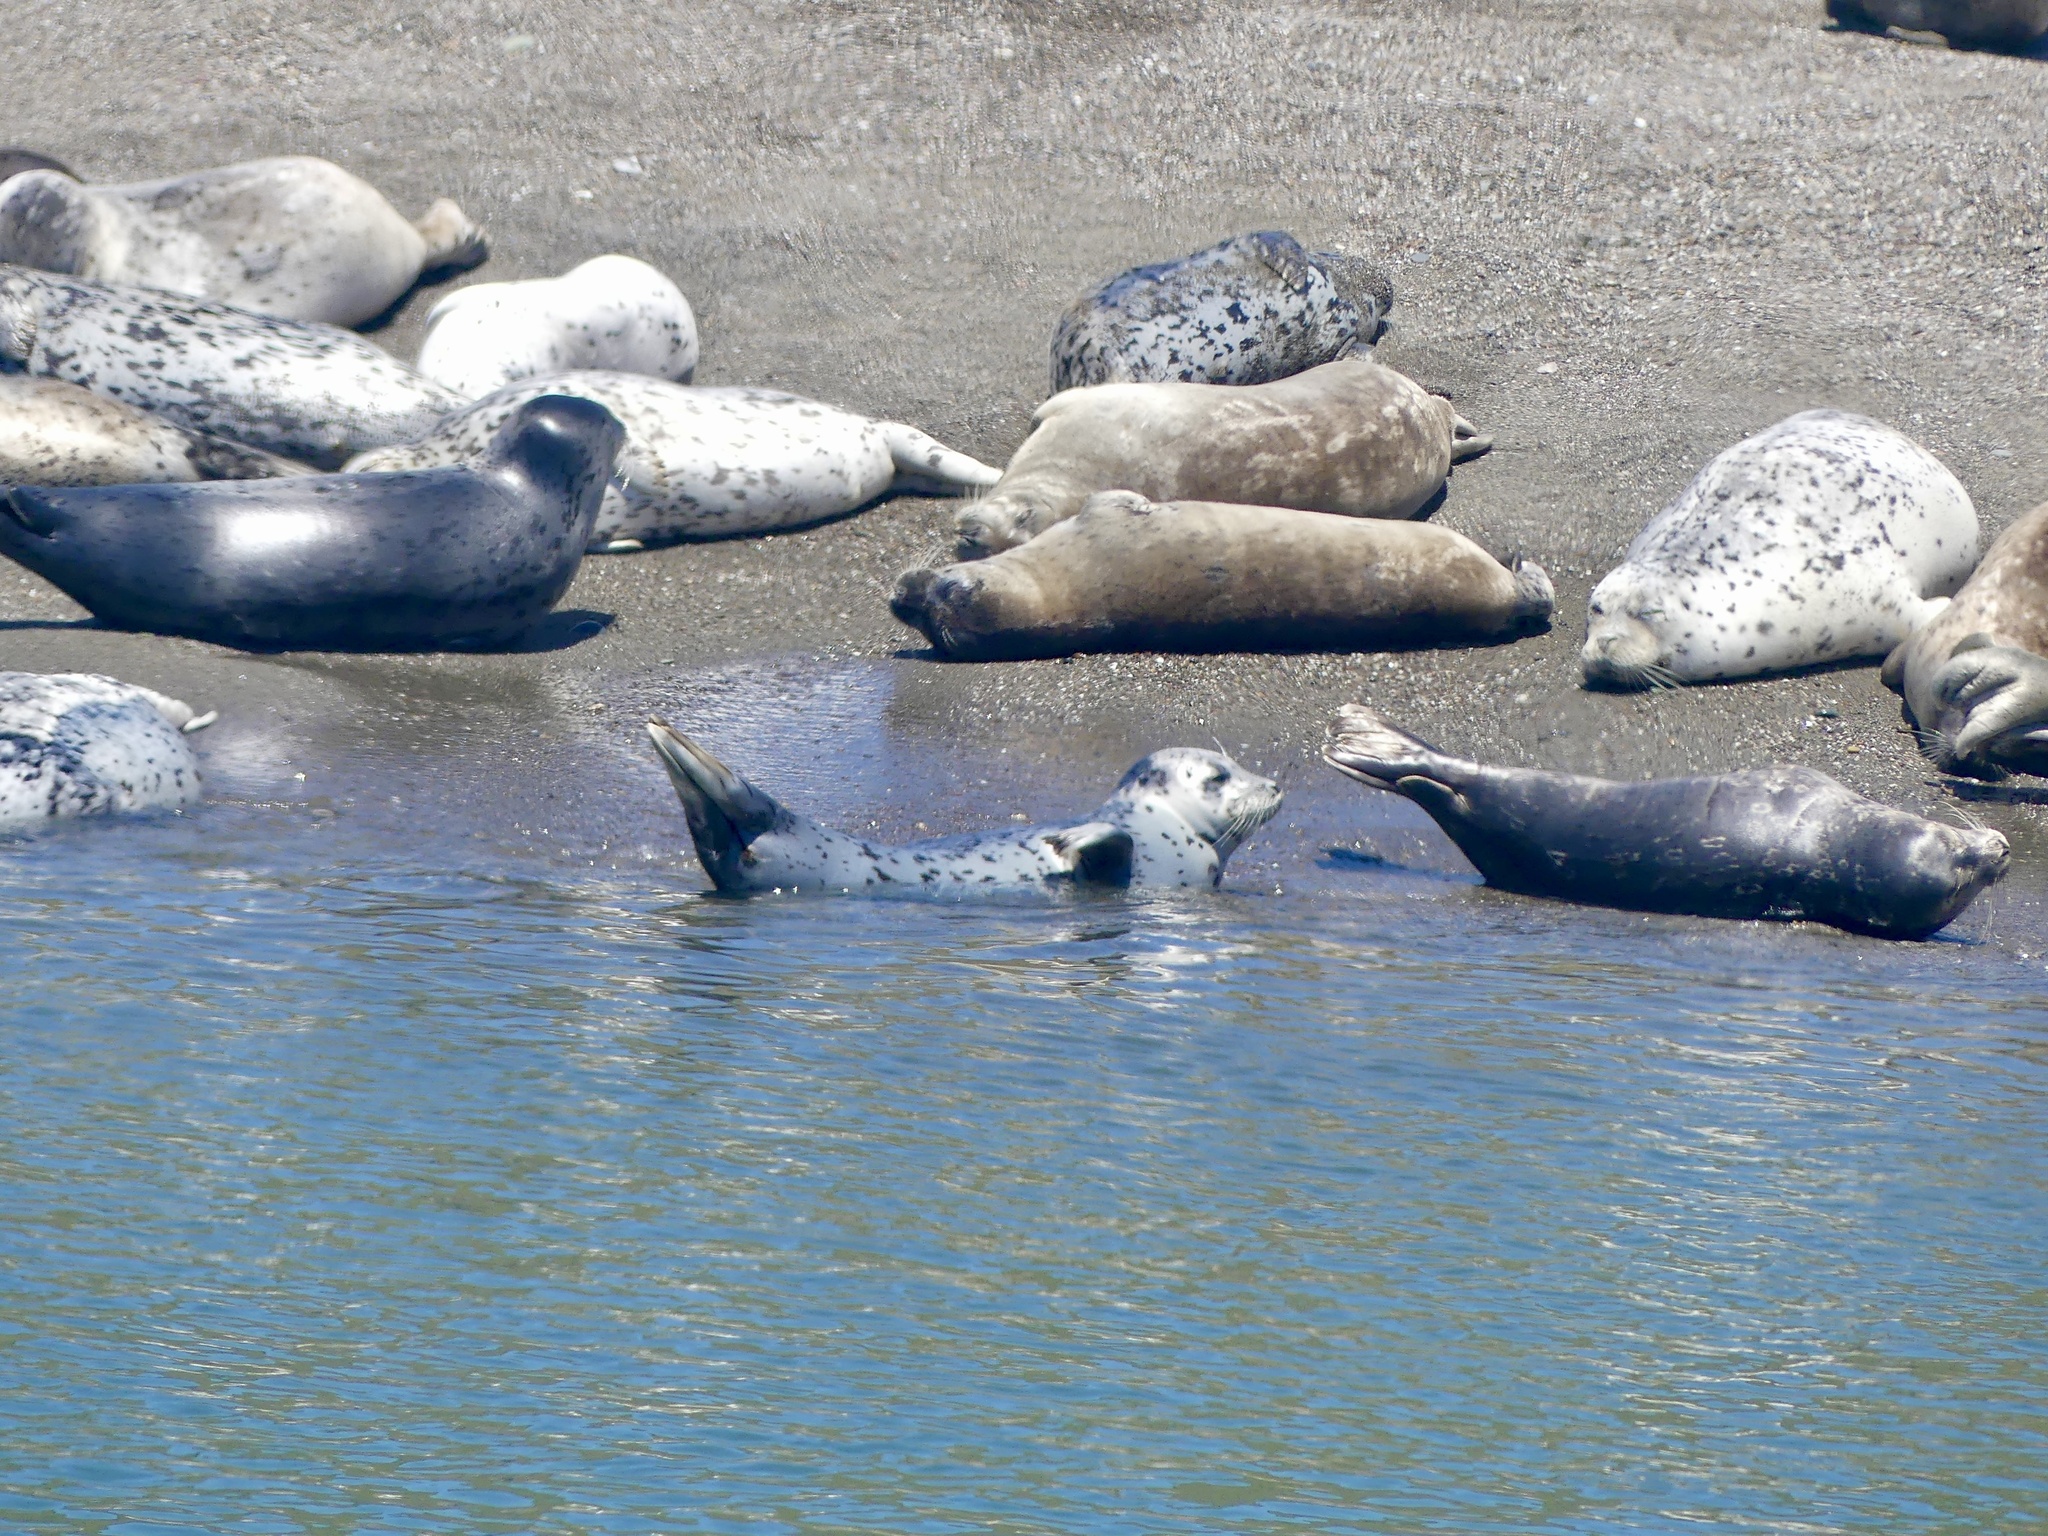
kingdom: Animalia
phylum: Chordata
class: Mammalia
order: Carnivora
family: Phocidae
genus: Phoca
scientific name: Phoca vitulina
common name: Harbor seal
